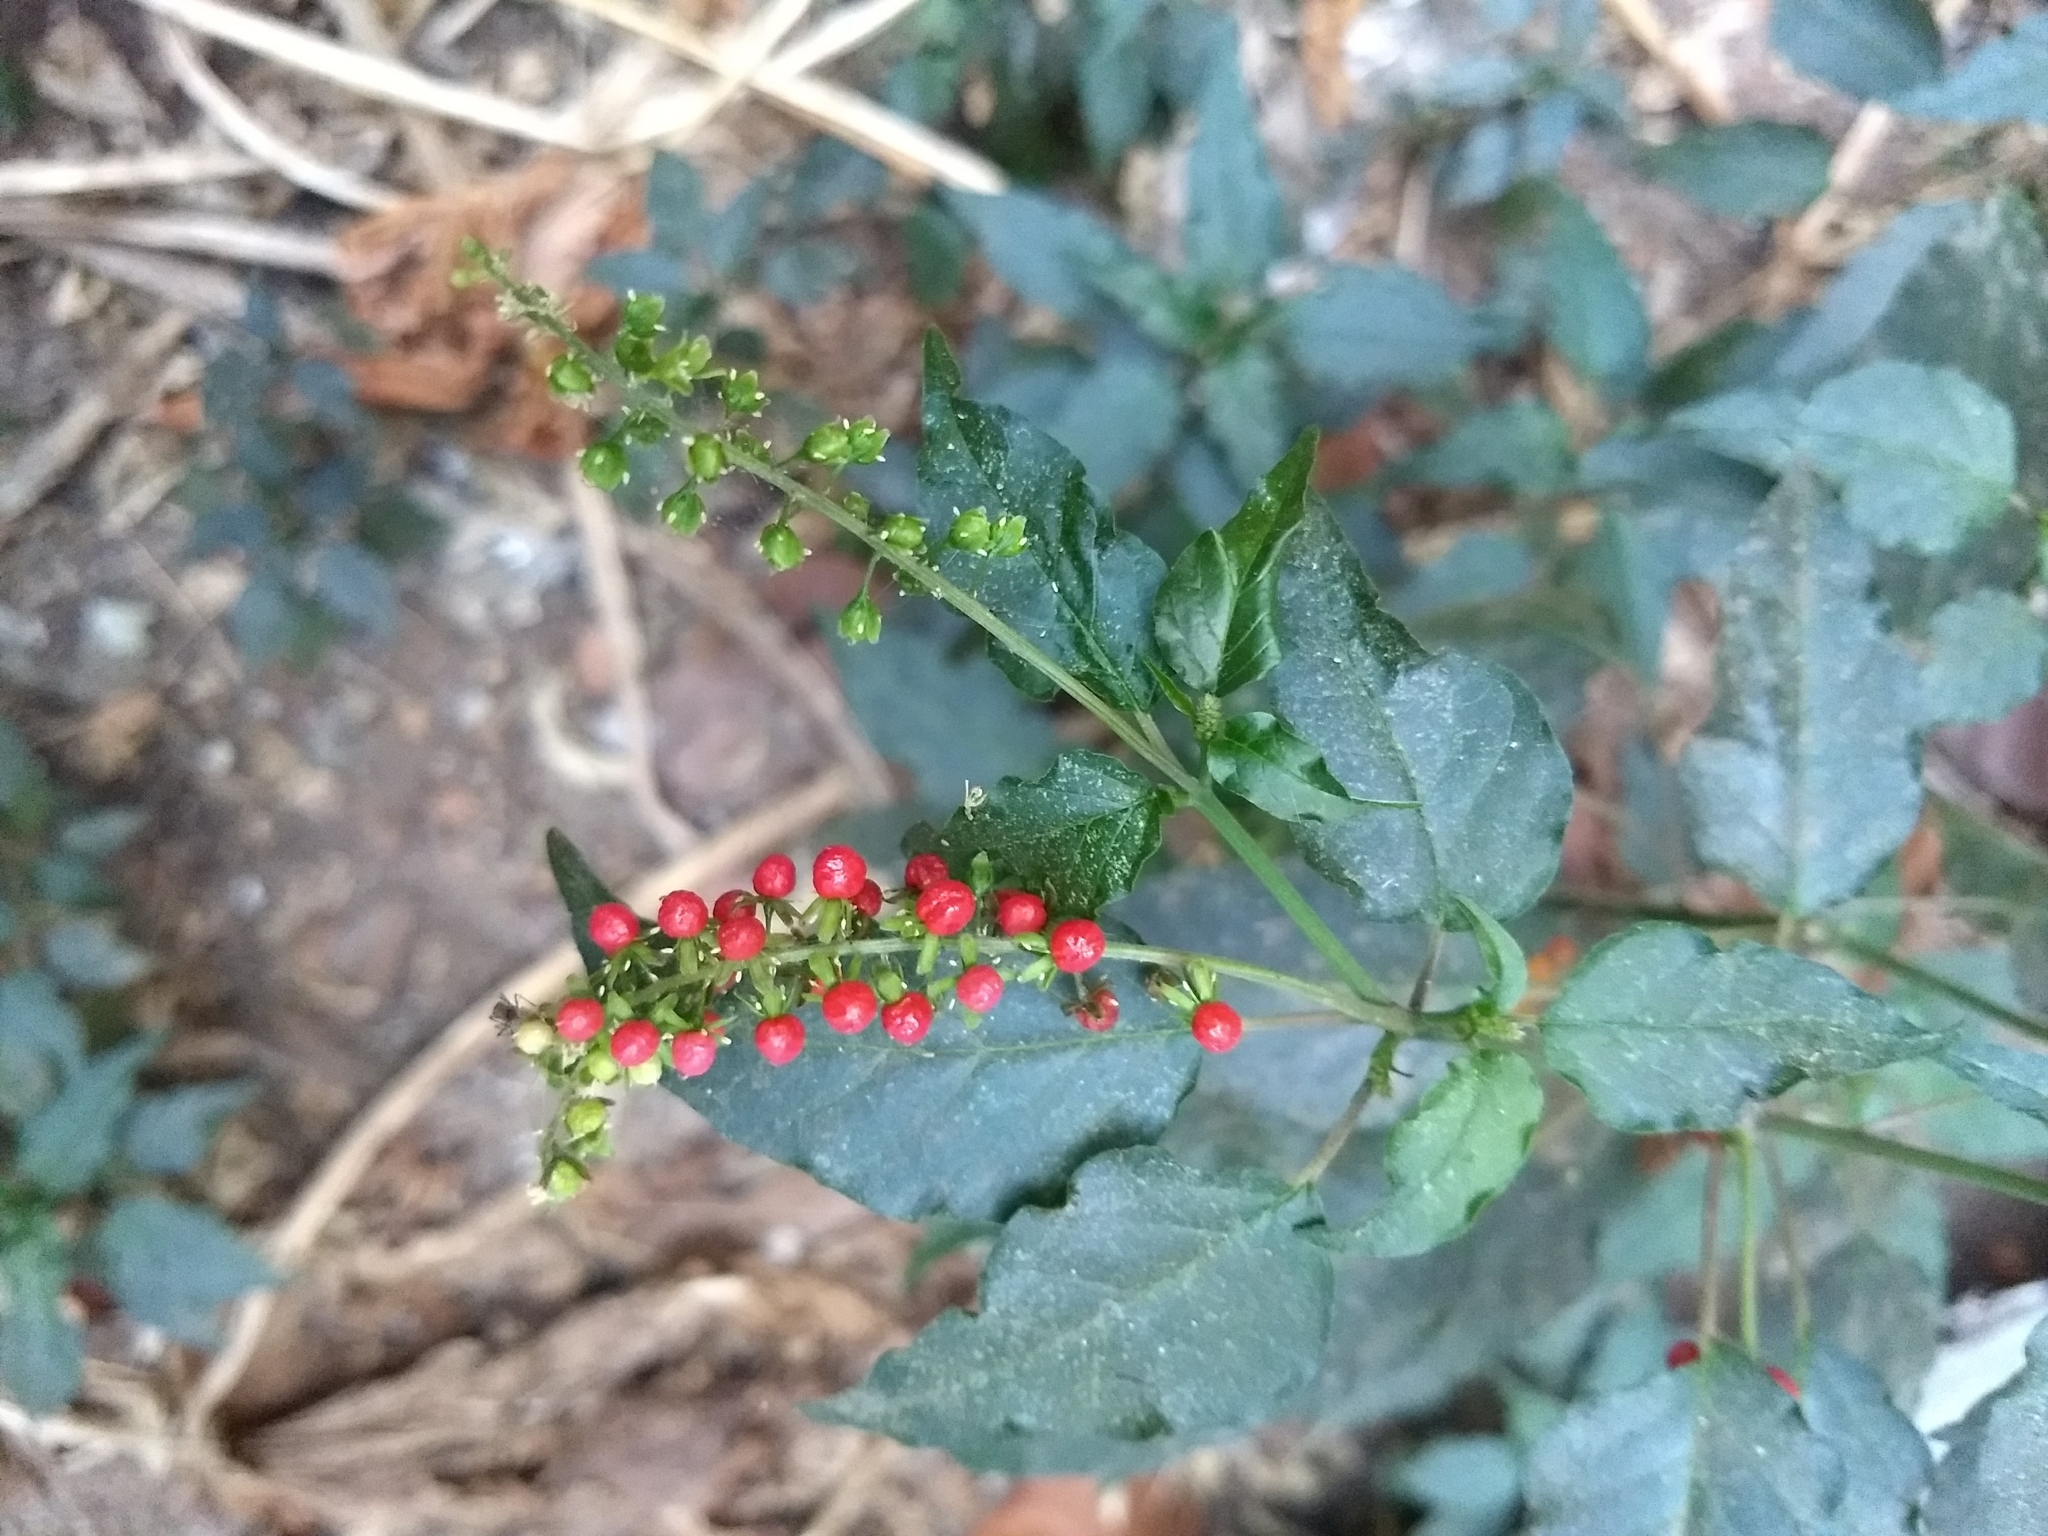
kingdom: Plantae
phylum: Tracheophyta
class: Magnoliopsida
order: Caryophyllales
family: Phytolaccaceae
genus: Rivina
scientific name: Rivina humilis
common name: Rougeplant
